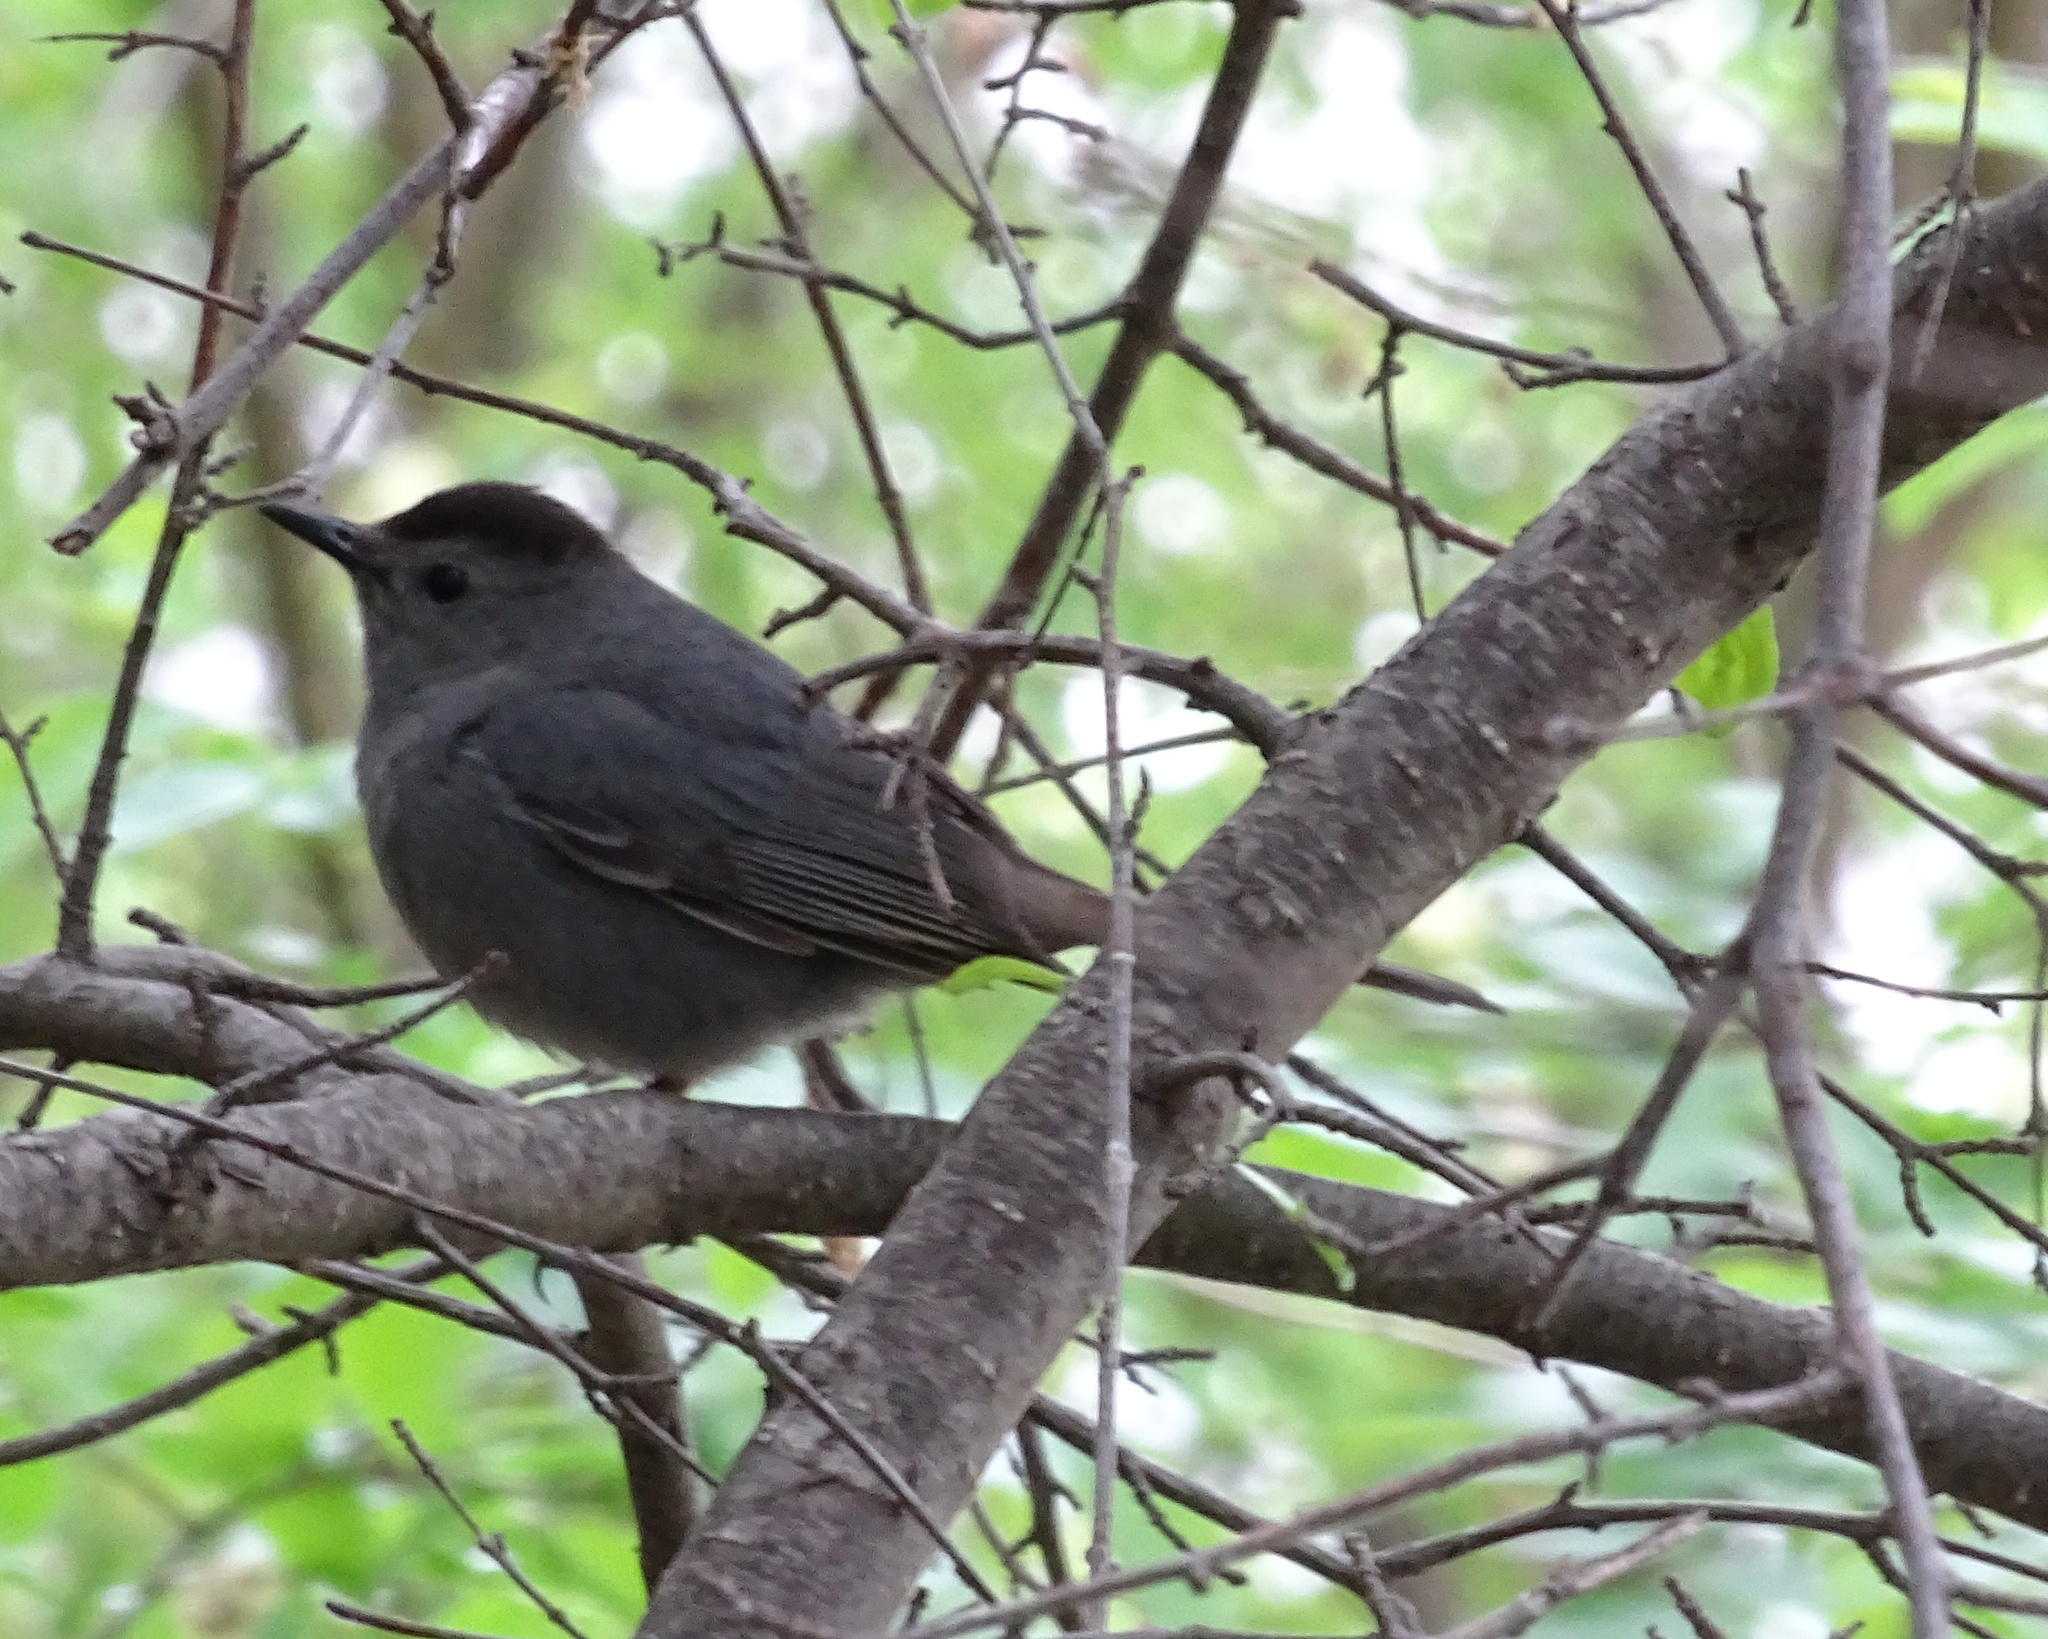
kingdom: Animalia
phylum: Chordata
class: Aves
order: Passeriformes
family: Mimidae
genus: Dumetella
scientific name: Dumetella carolinensis
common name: Gray catbird
